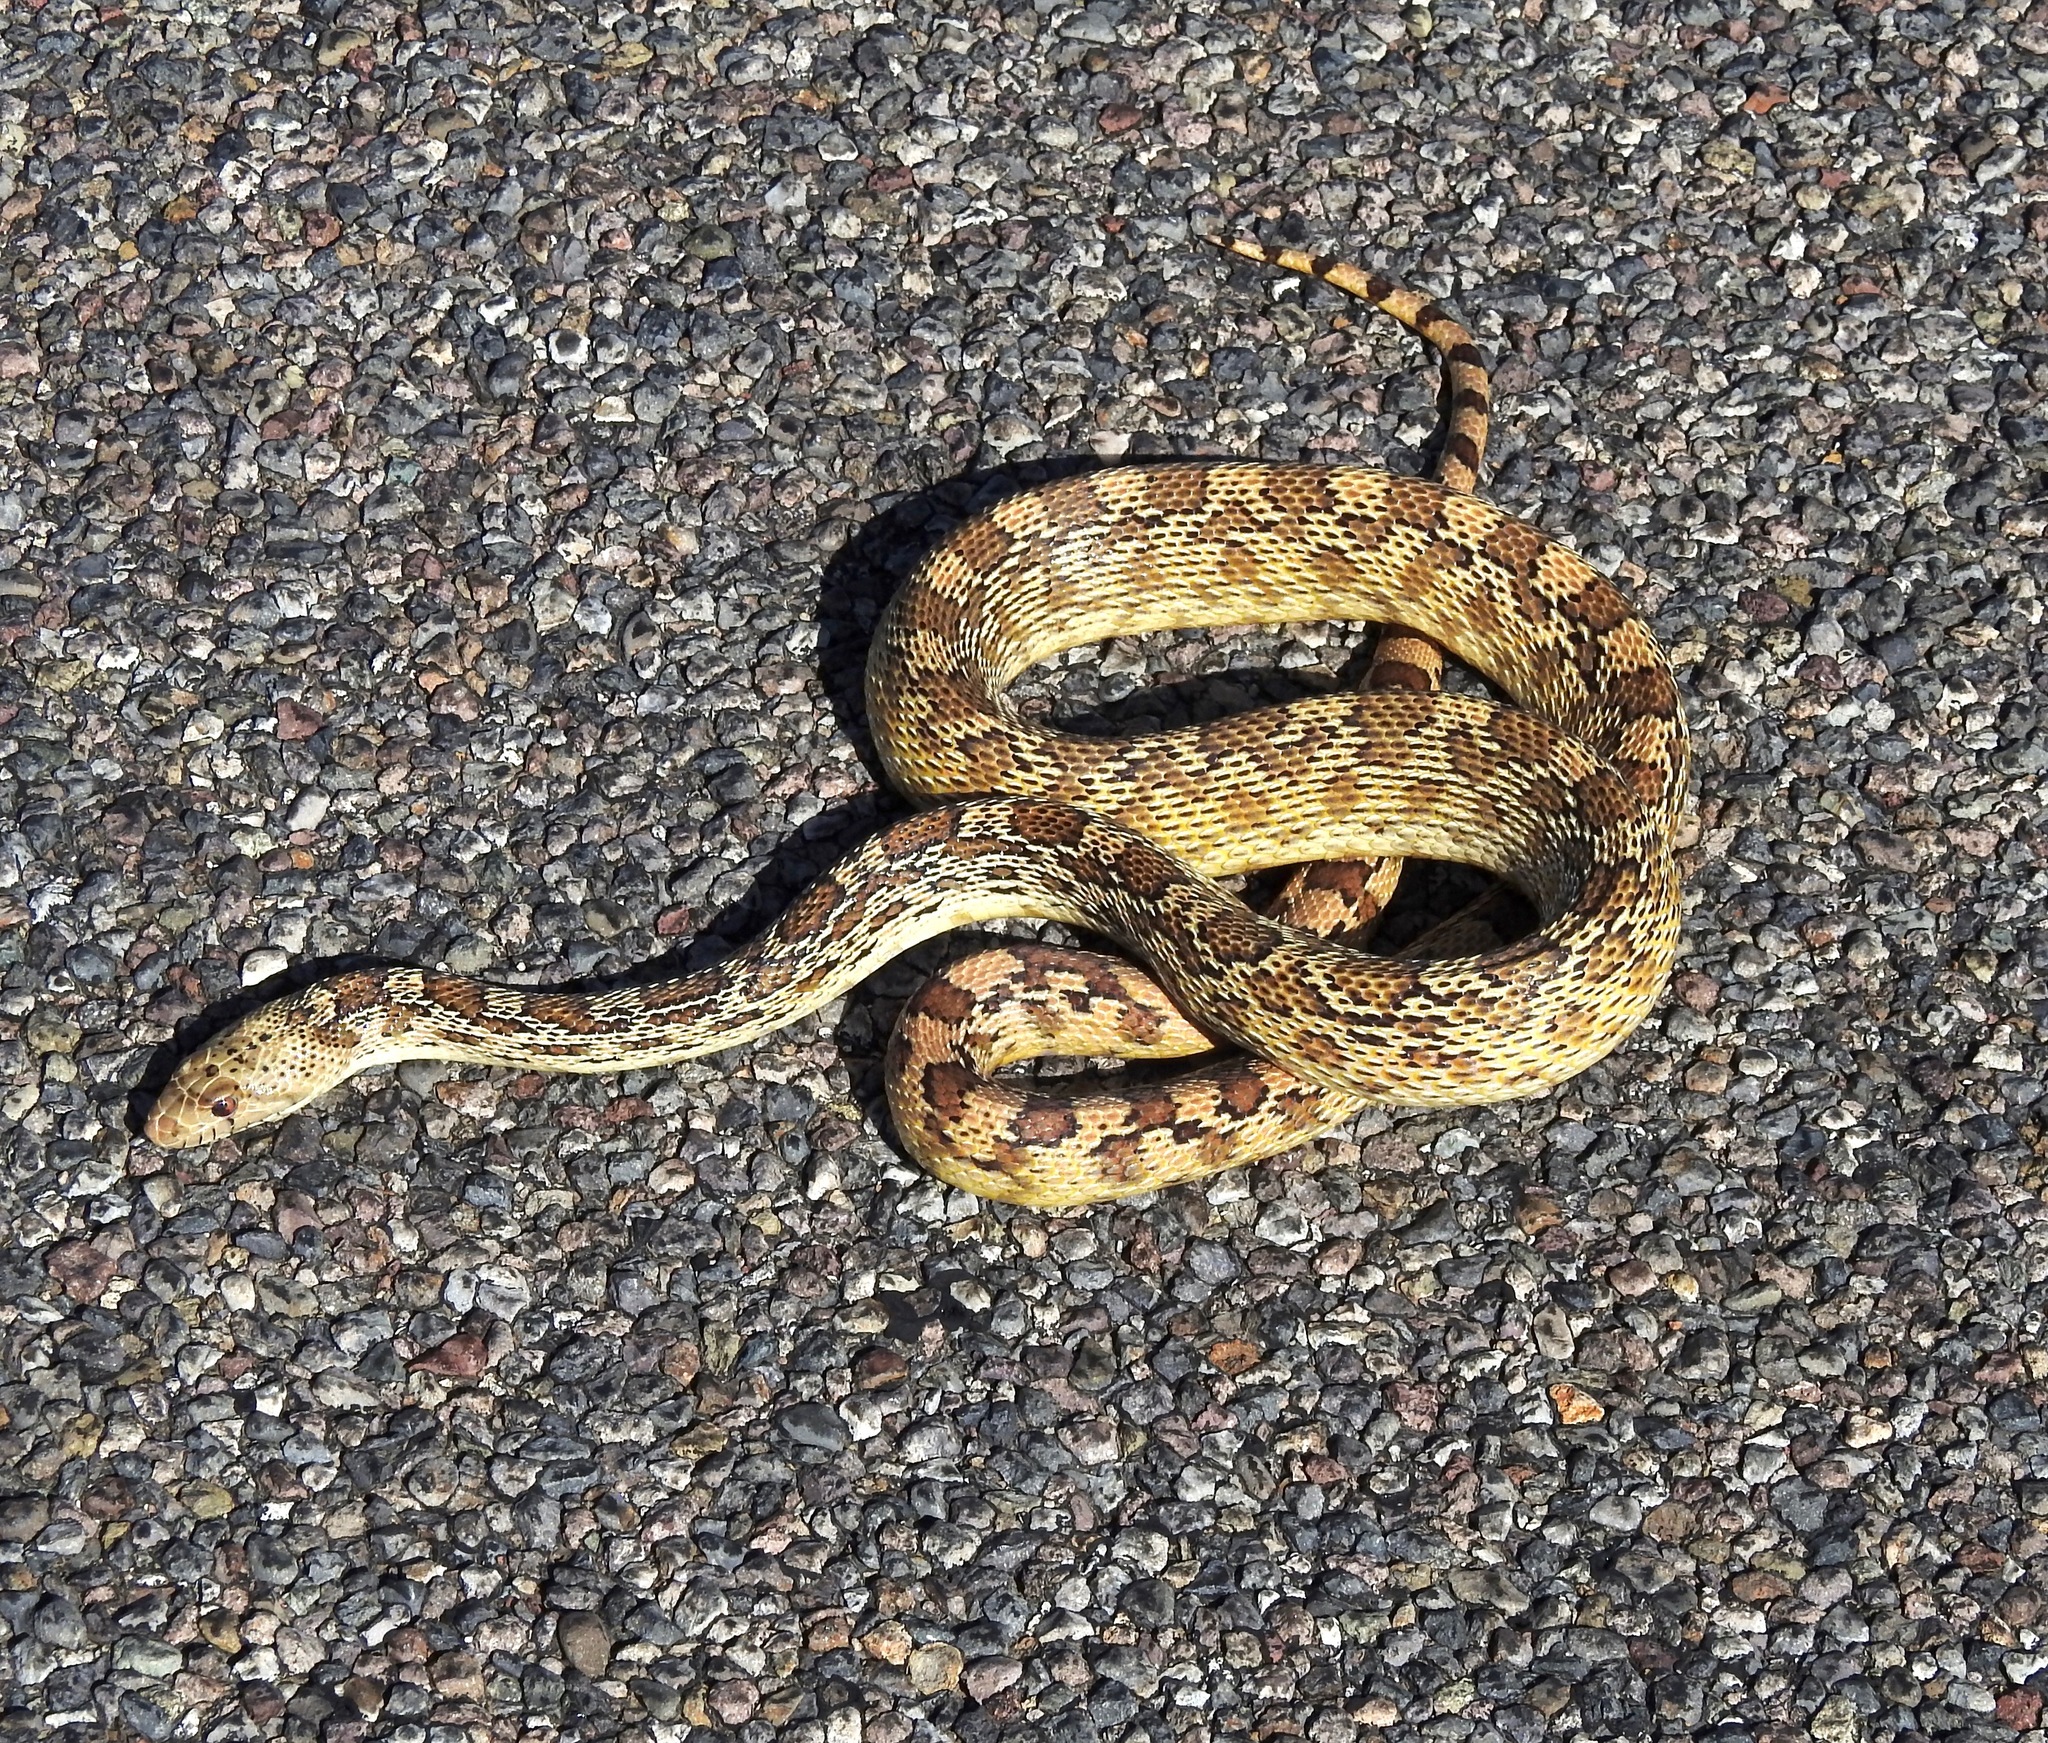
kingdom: Animalia
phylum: Chordata
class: Squamata
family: Colubridae
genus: Pituophis
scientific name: Pituophis catenifer
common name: Gopher snake
